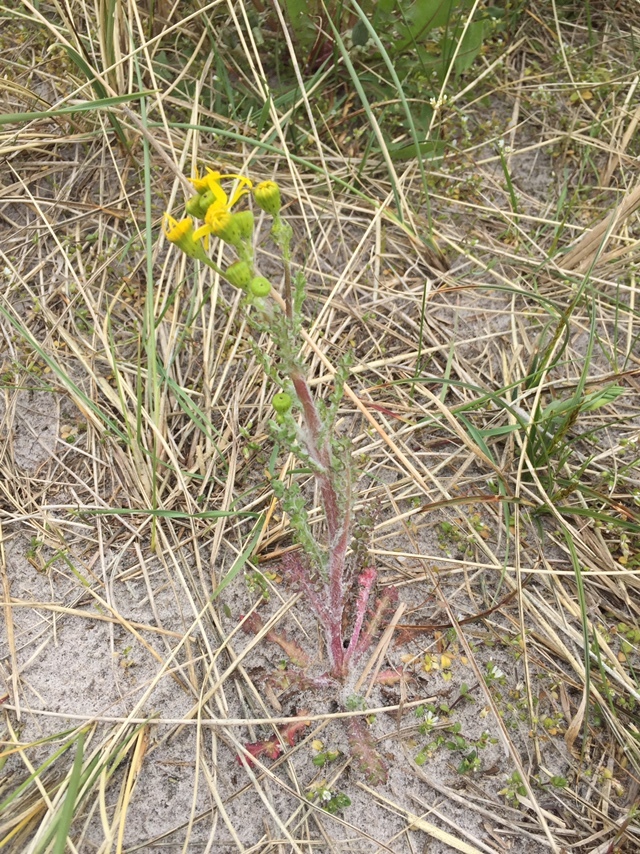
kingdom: Plantae
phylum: Tracheophyta
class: Magnoliopsida
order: Asterales
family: Asteraceae
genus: Senecio
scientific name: Senecio vernalis
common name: Eastern groundsel
